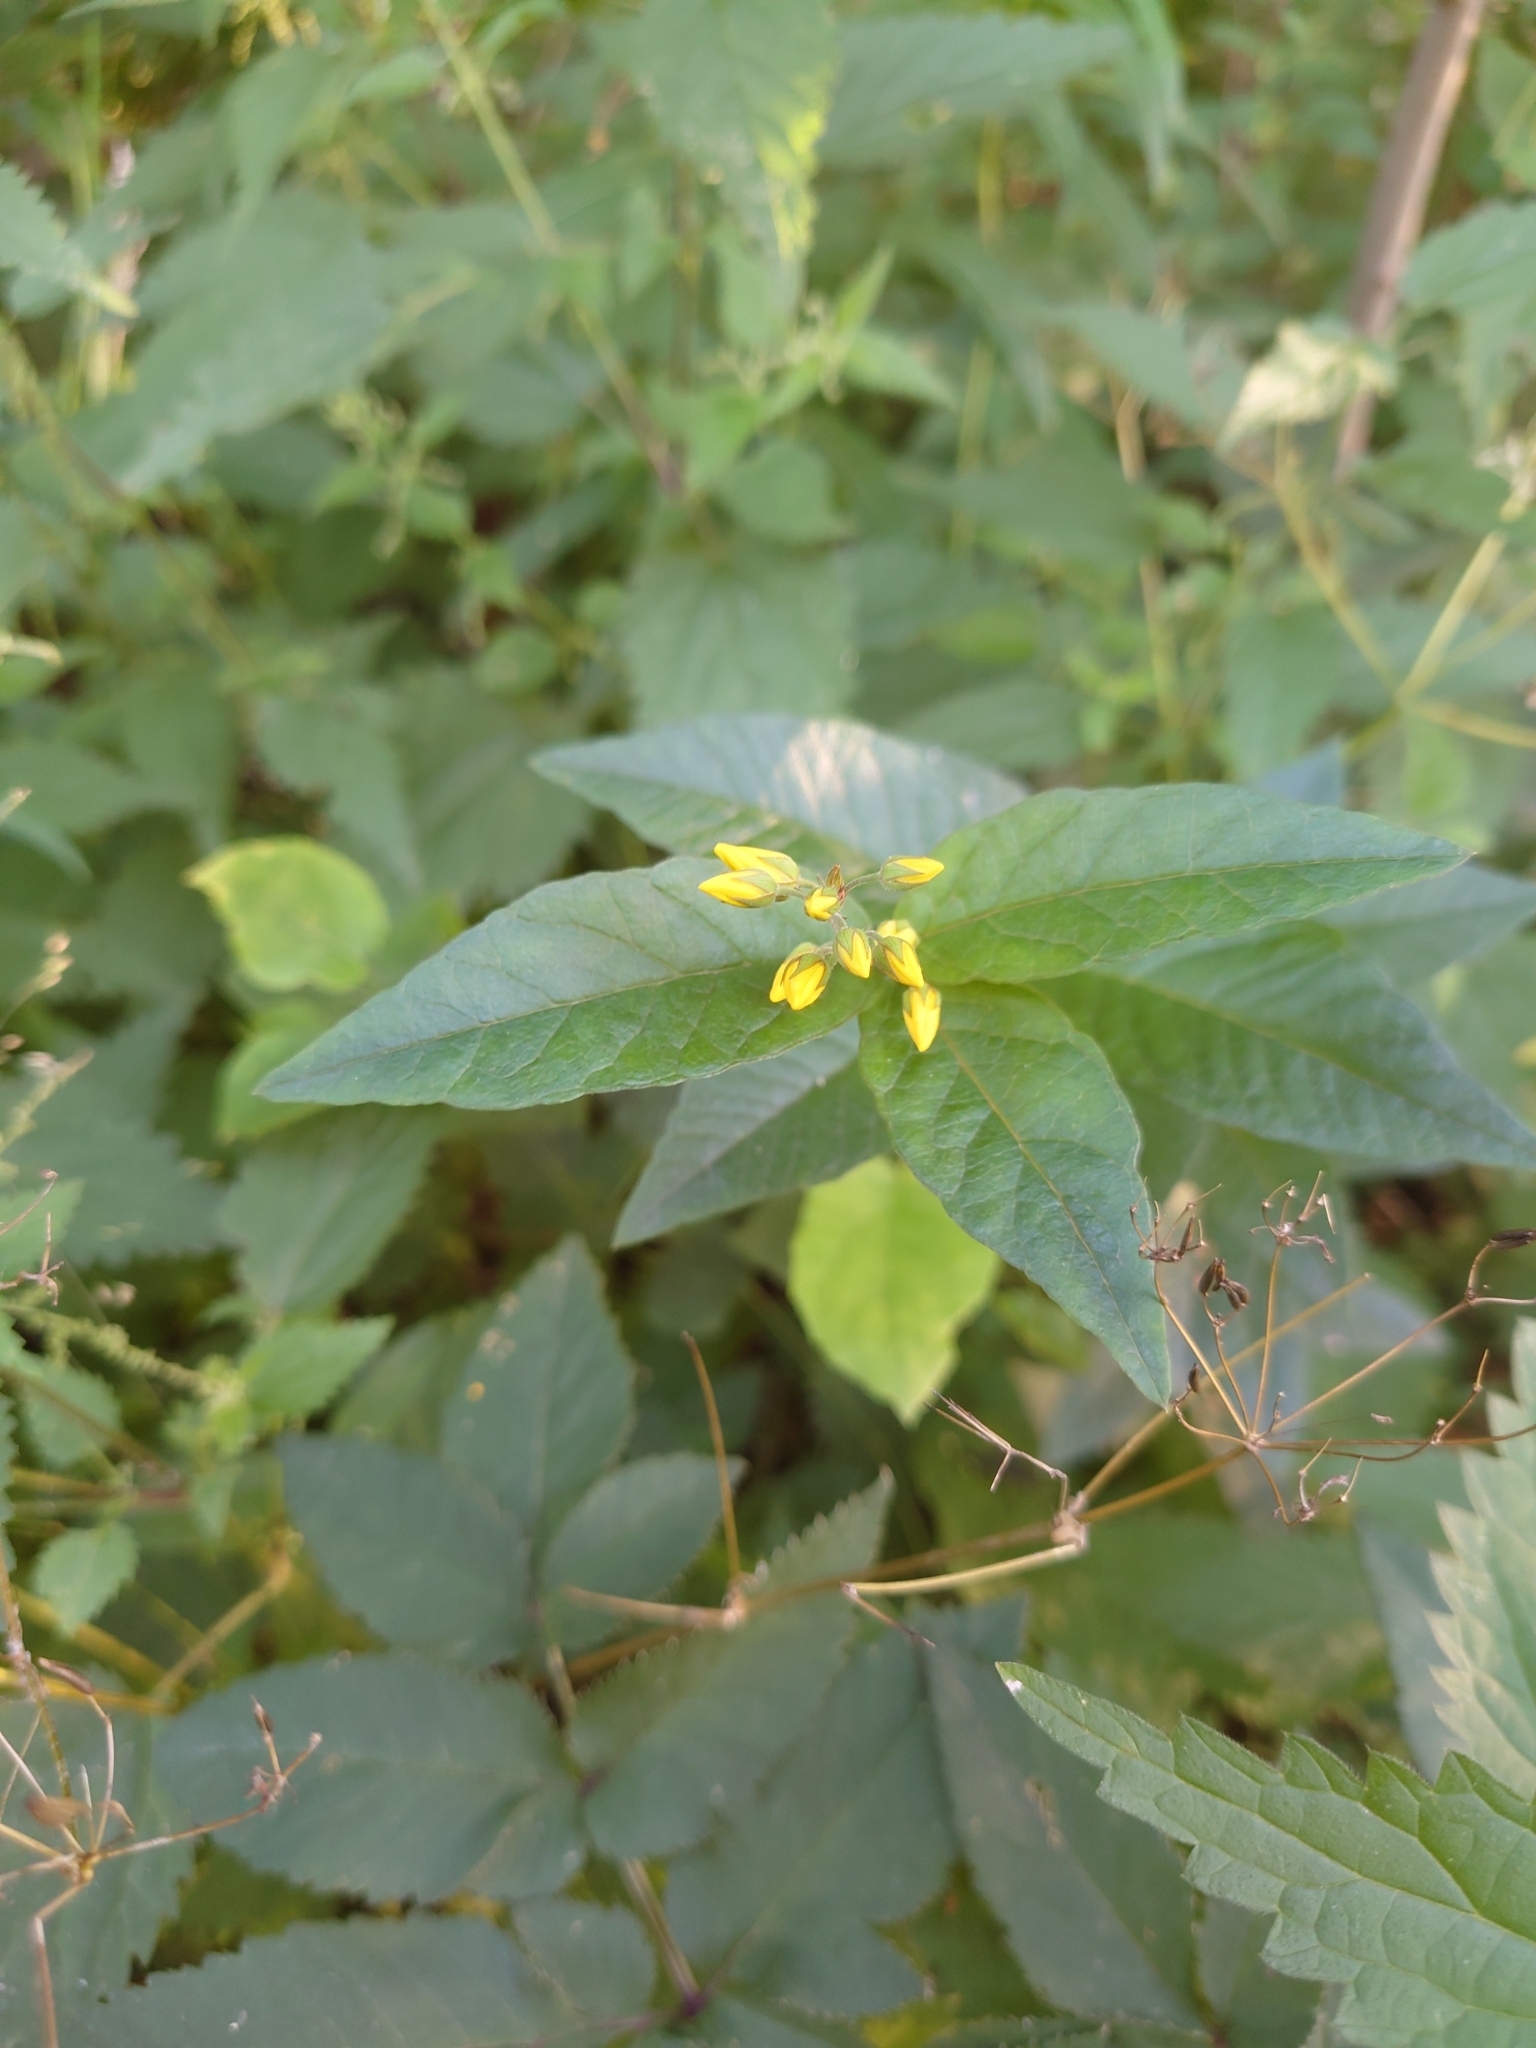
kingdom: Plantae
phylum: Tracheophyta
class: Magnoliopsida
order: Ericales
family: Primulaceae
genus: Lysimachia
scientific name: Lysimachia vulgaris
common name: Yellow loosestrife
